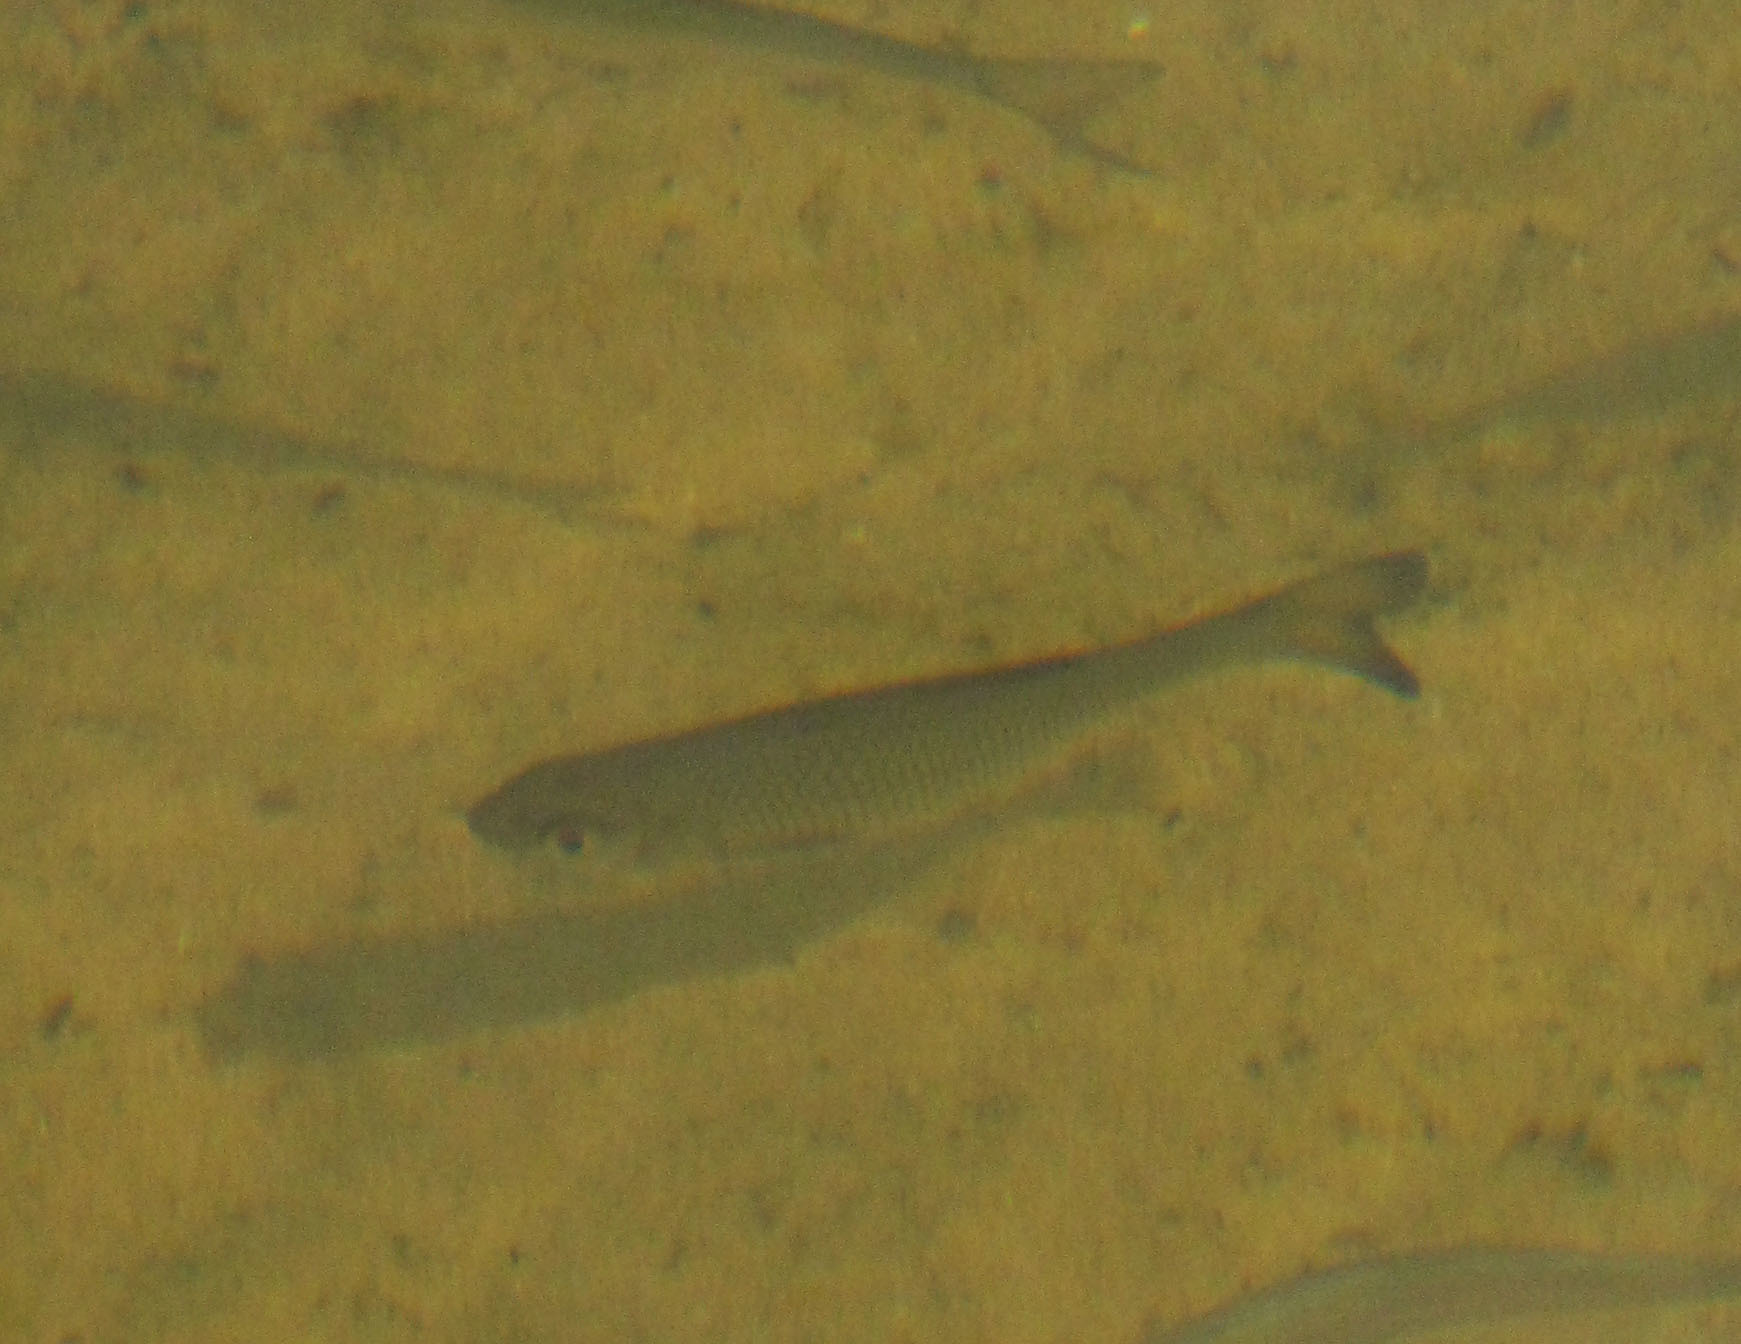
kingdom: Animalia
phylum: Chordata
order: Cypriniformes
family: Cyprinidae
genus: Squalius
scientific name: Squalius cephalus
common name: Chub
